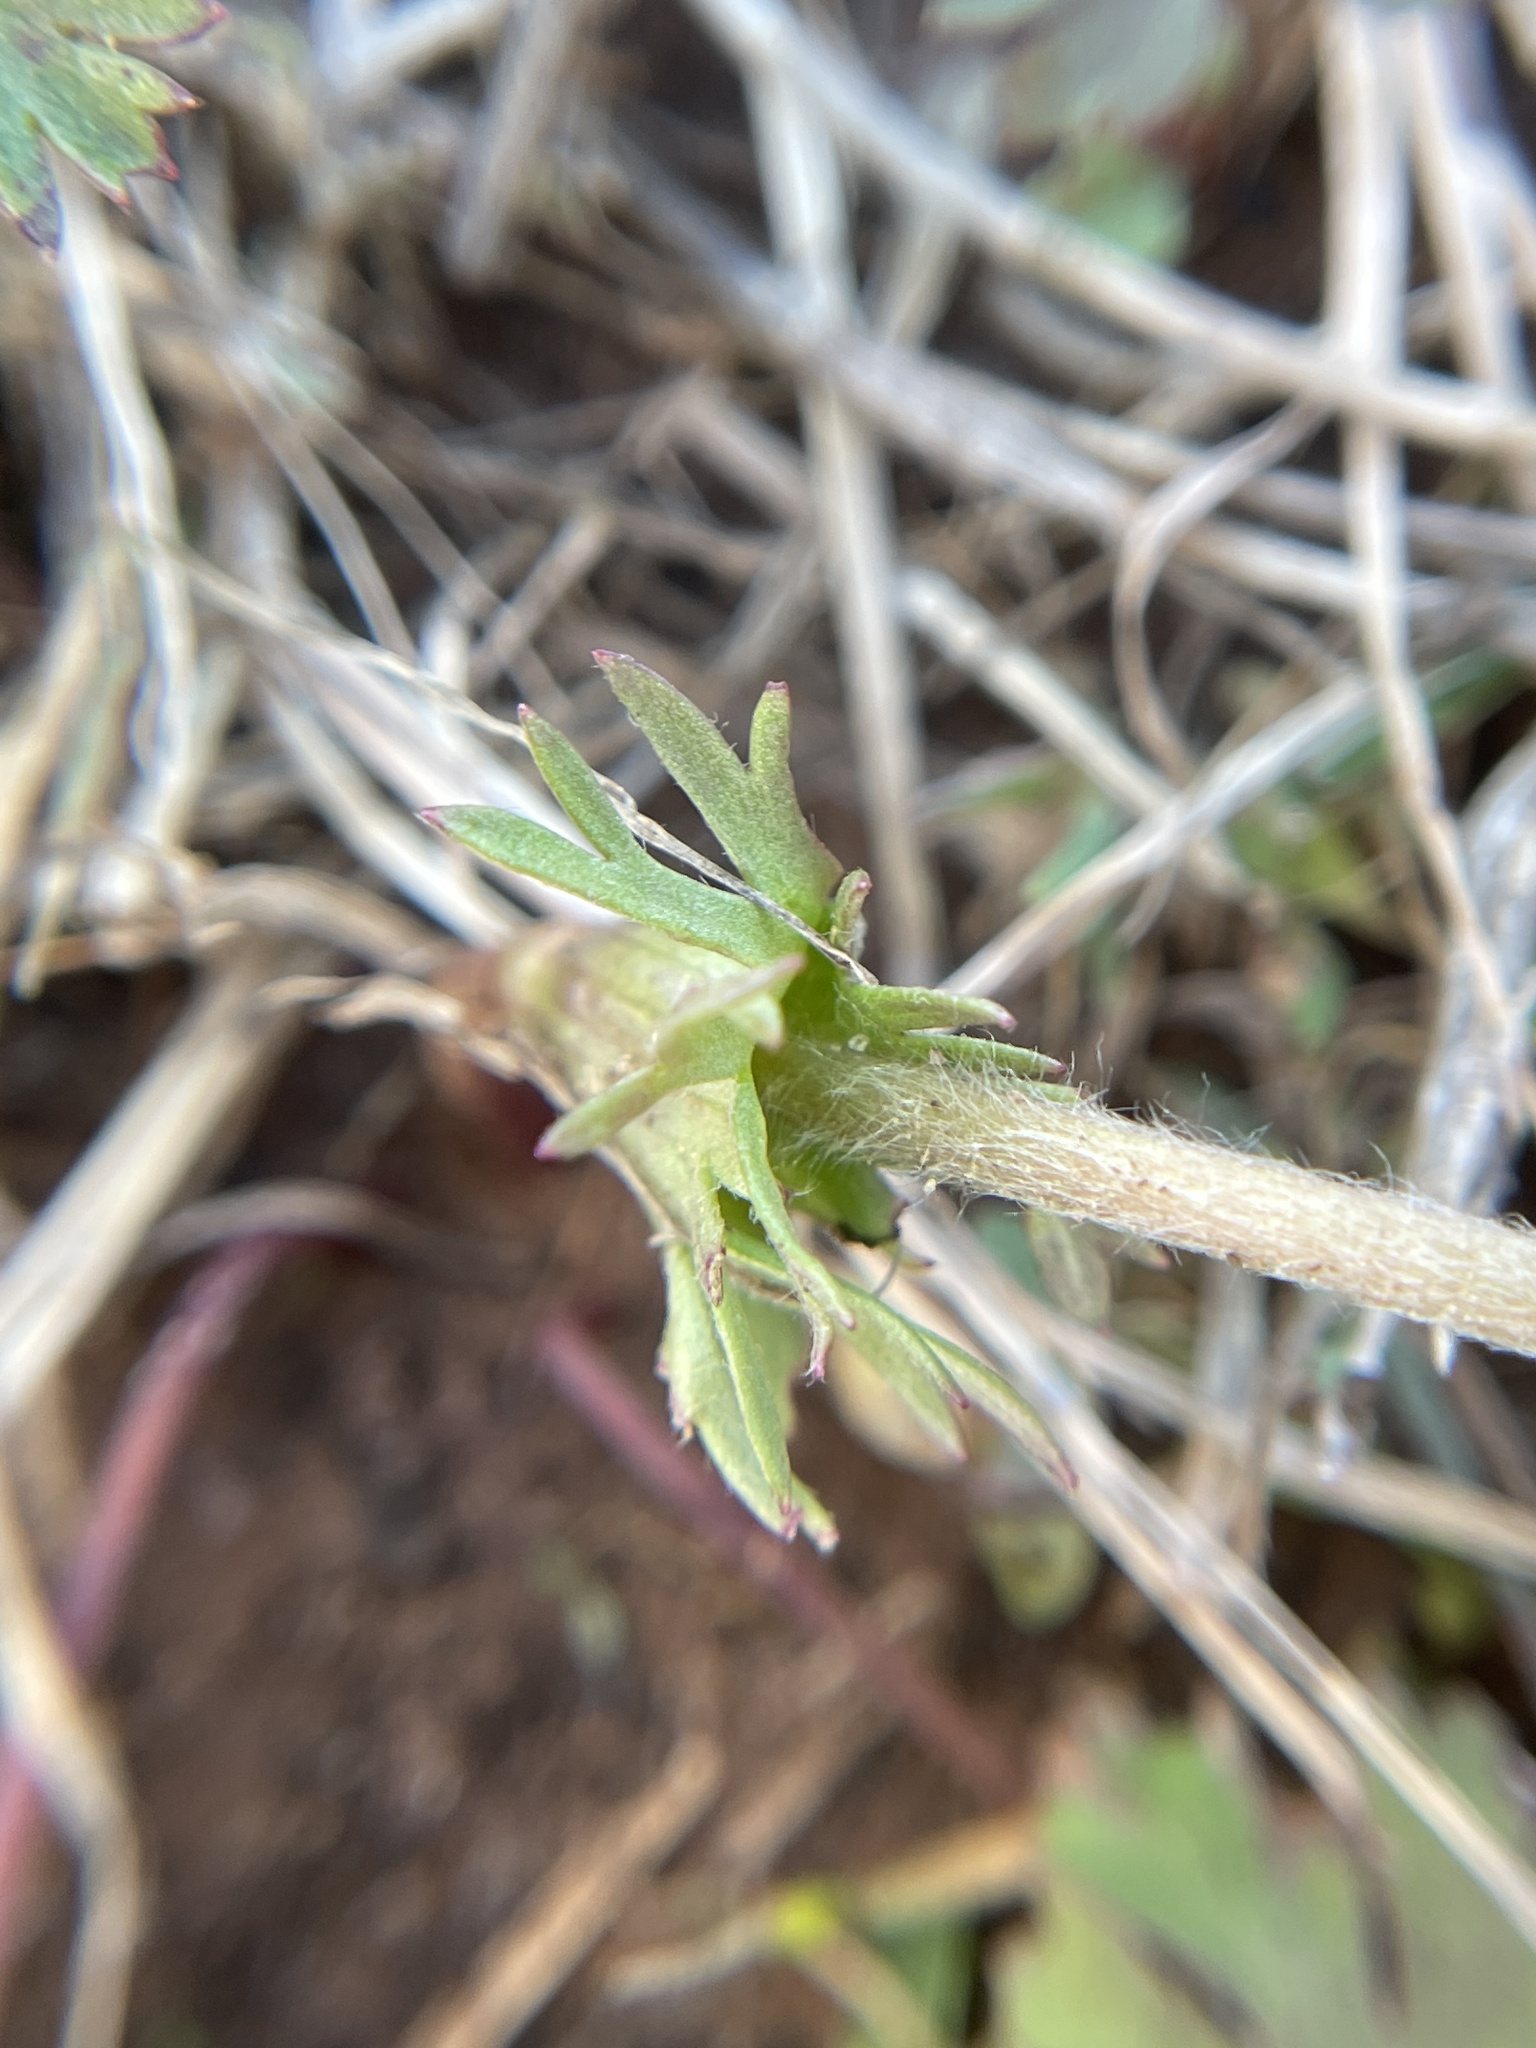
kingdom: Plantae
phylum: Tracheophyta
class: Magnoliopsida
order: Ranunculales
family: Ranunculaceae
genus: Anemone
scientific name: Anemone caroliniana
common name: Carolina anemone
